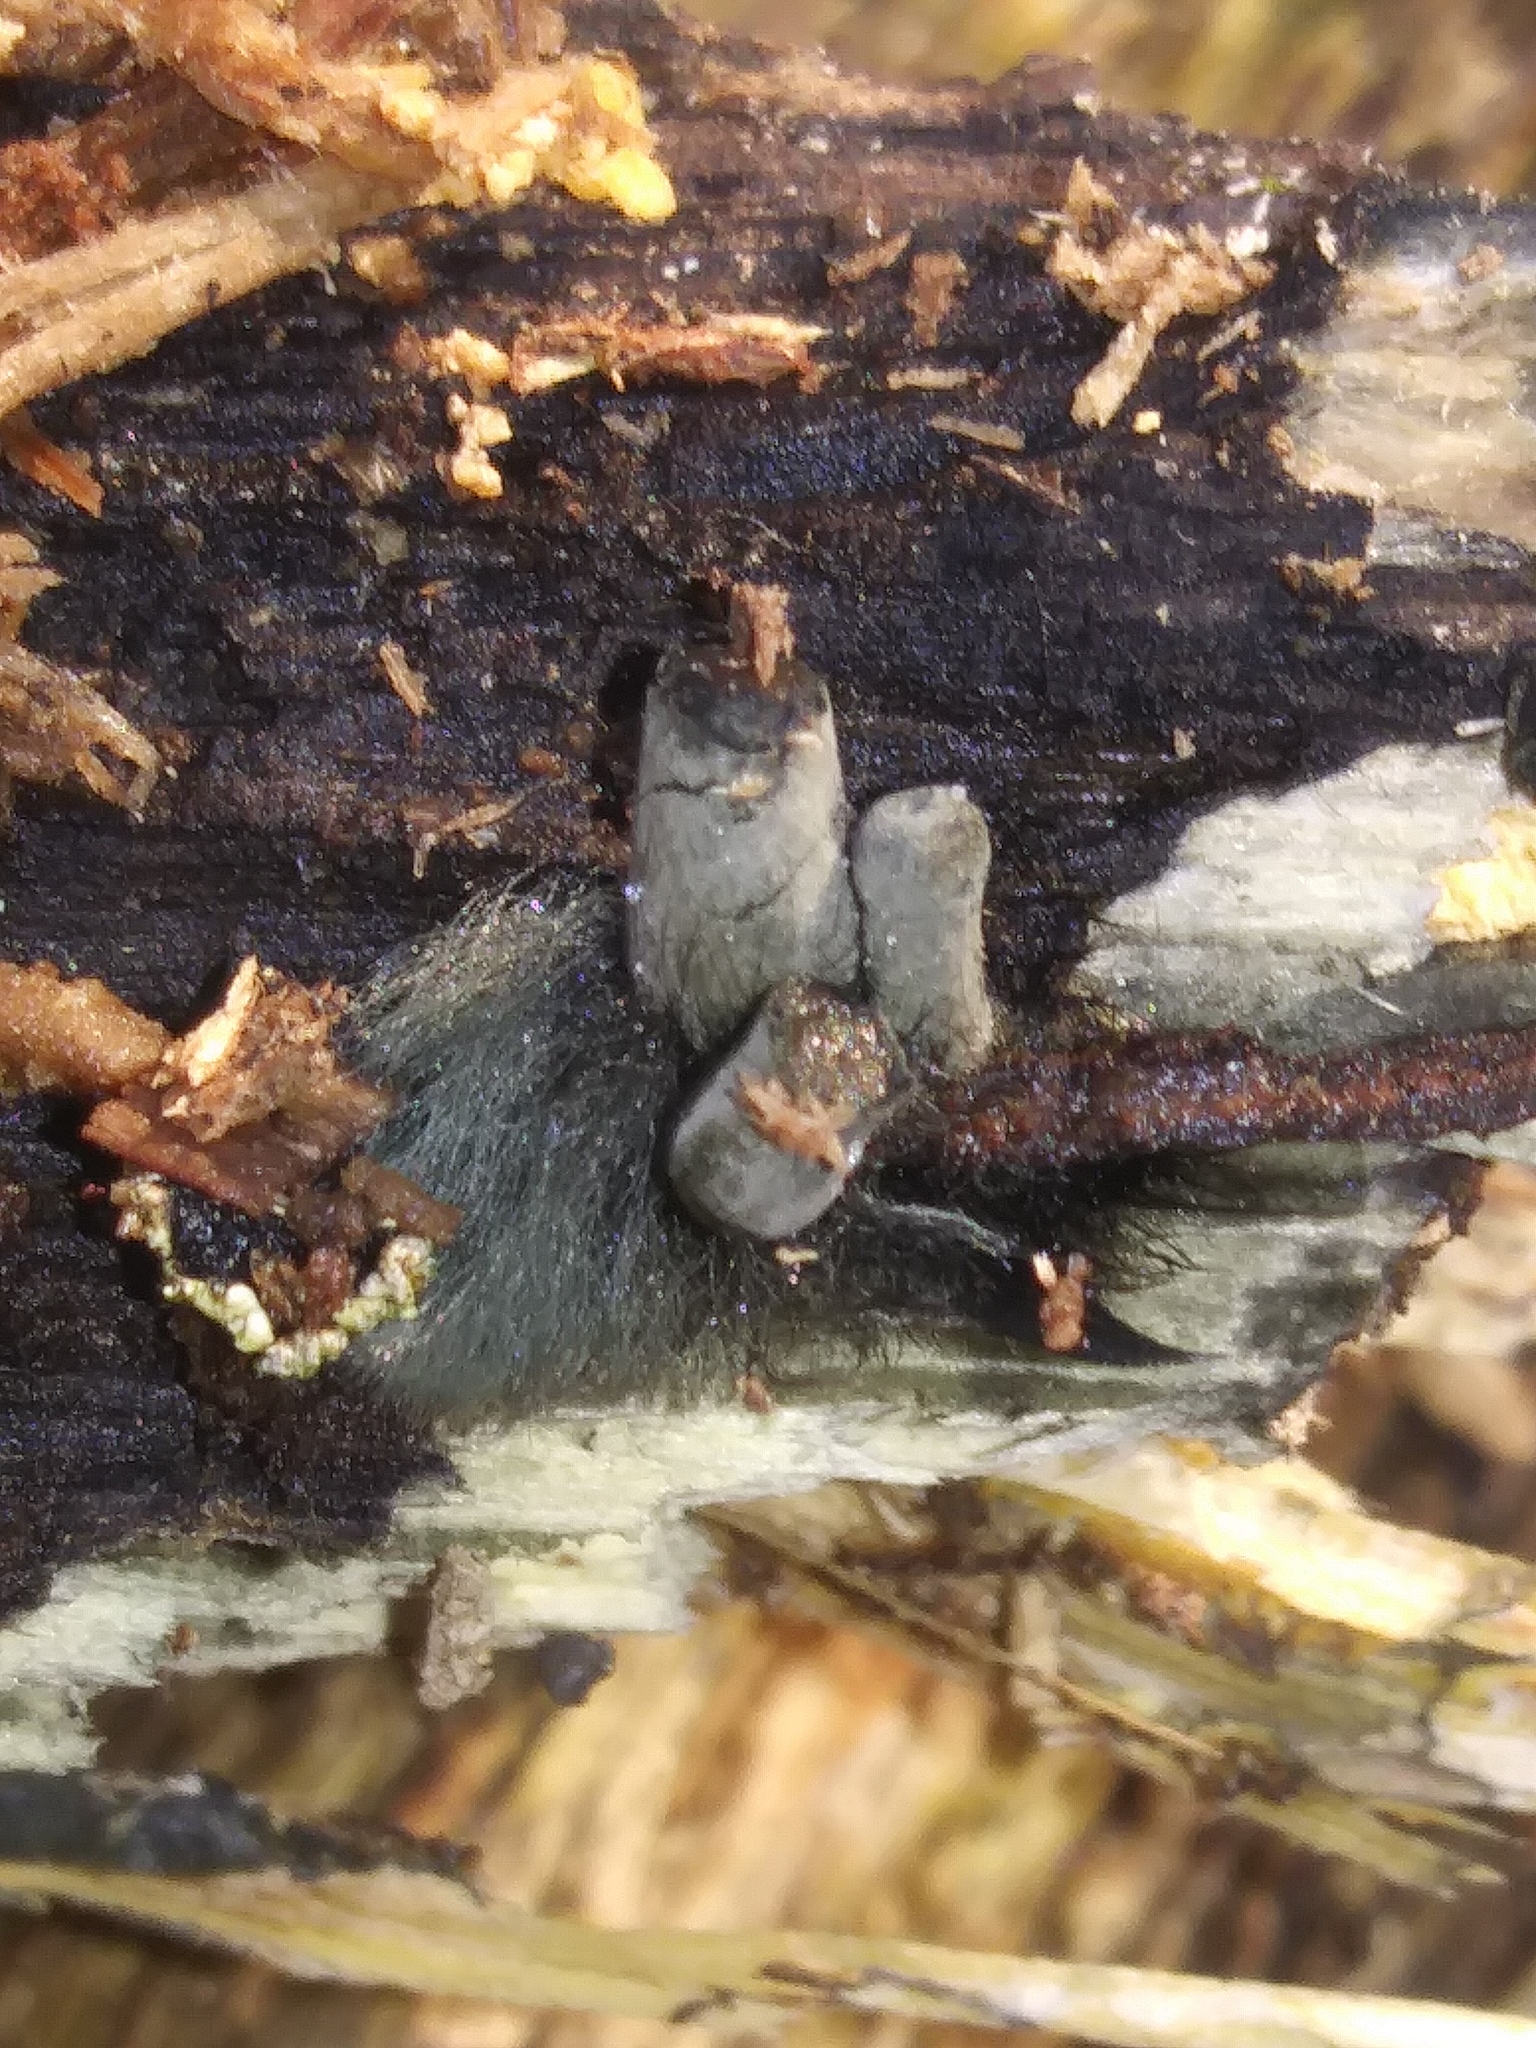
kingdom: Fungi
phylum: Ascomycota
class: Sordariomycetes
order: Xylariales
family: Xylariaceae
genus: Xylaria
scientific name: Xylaria polymorpha
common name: Dead man's fingers
